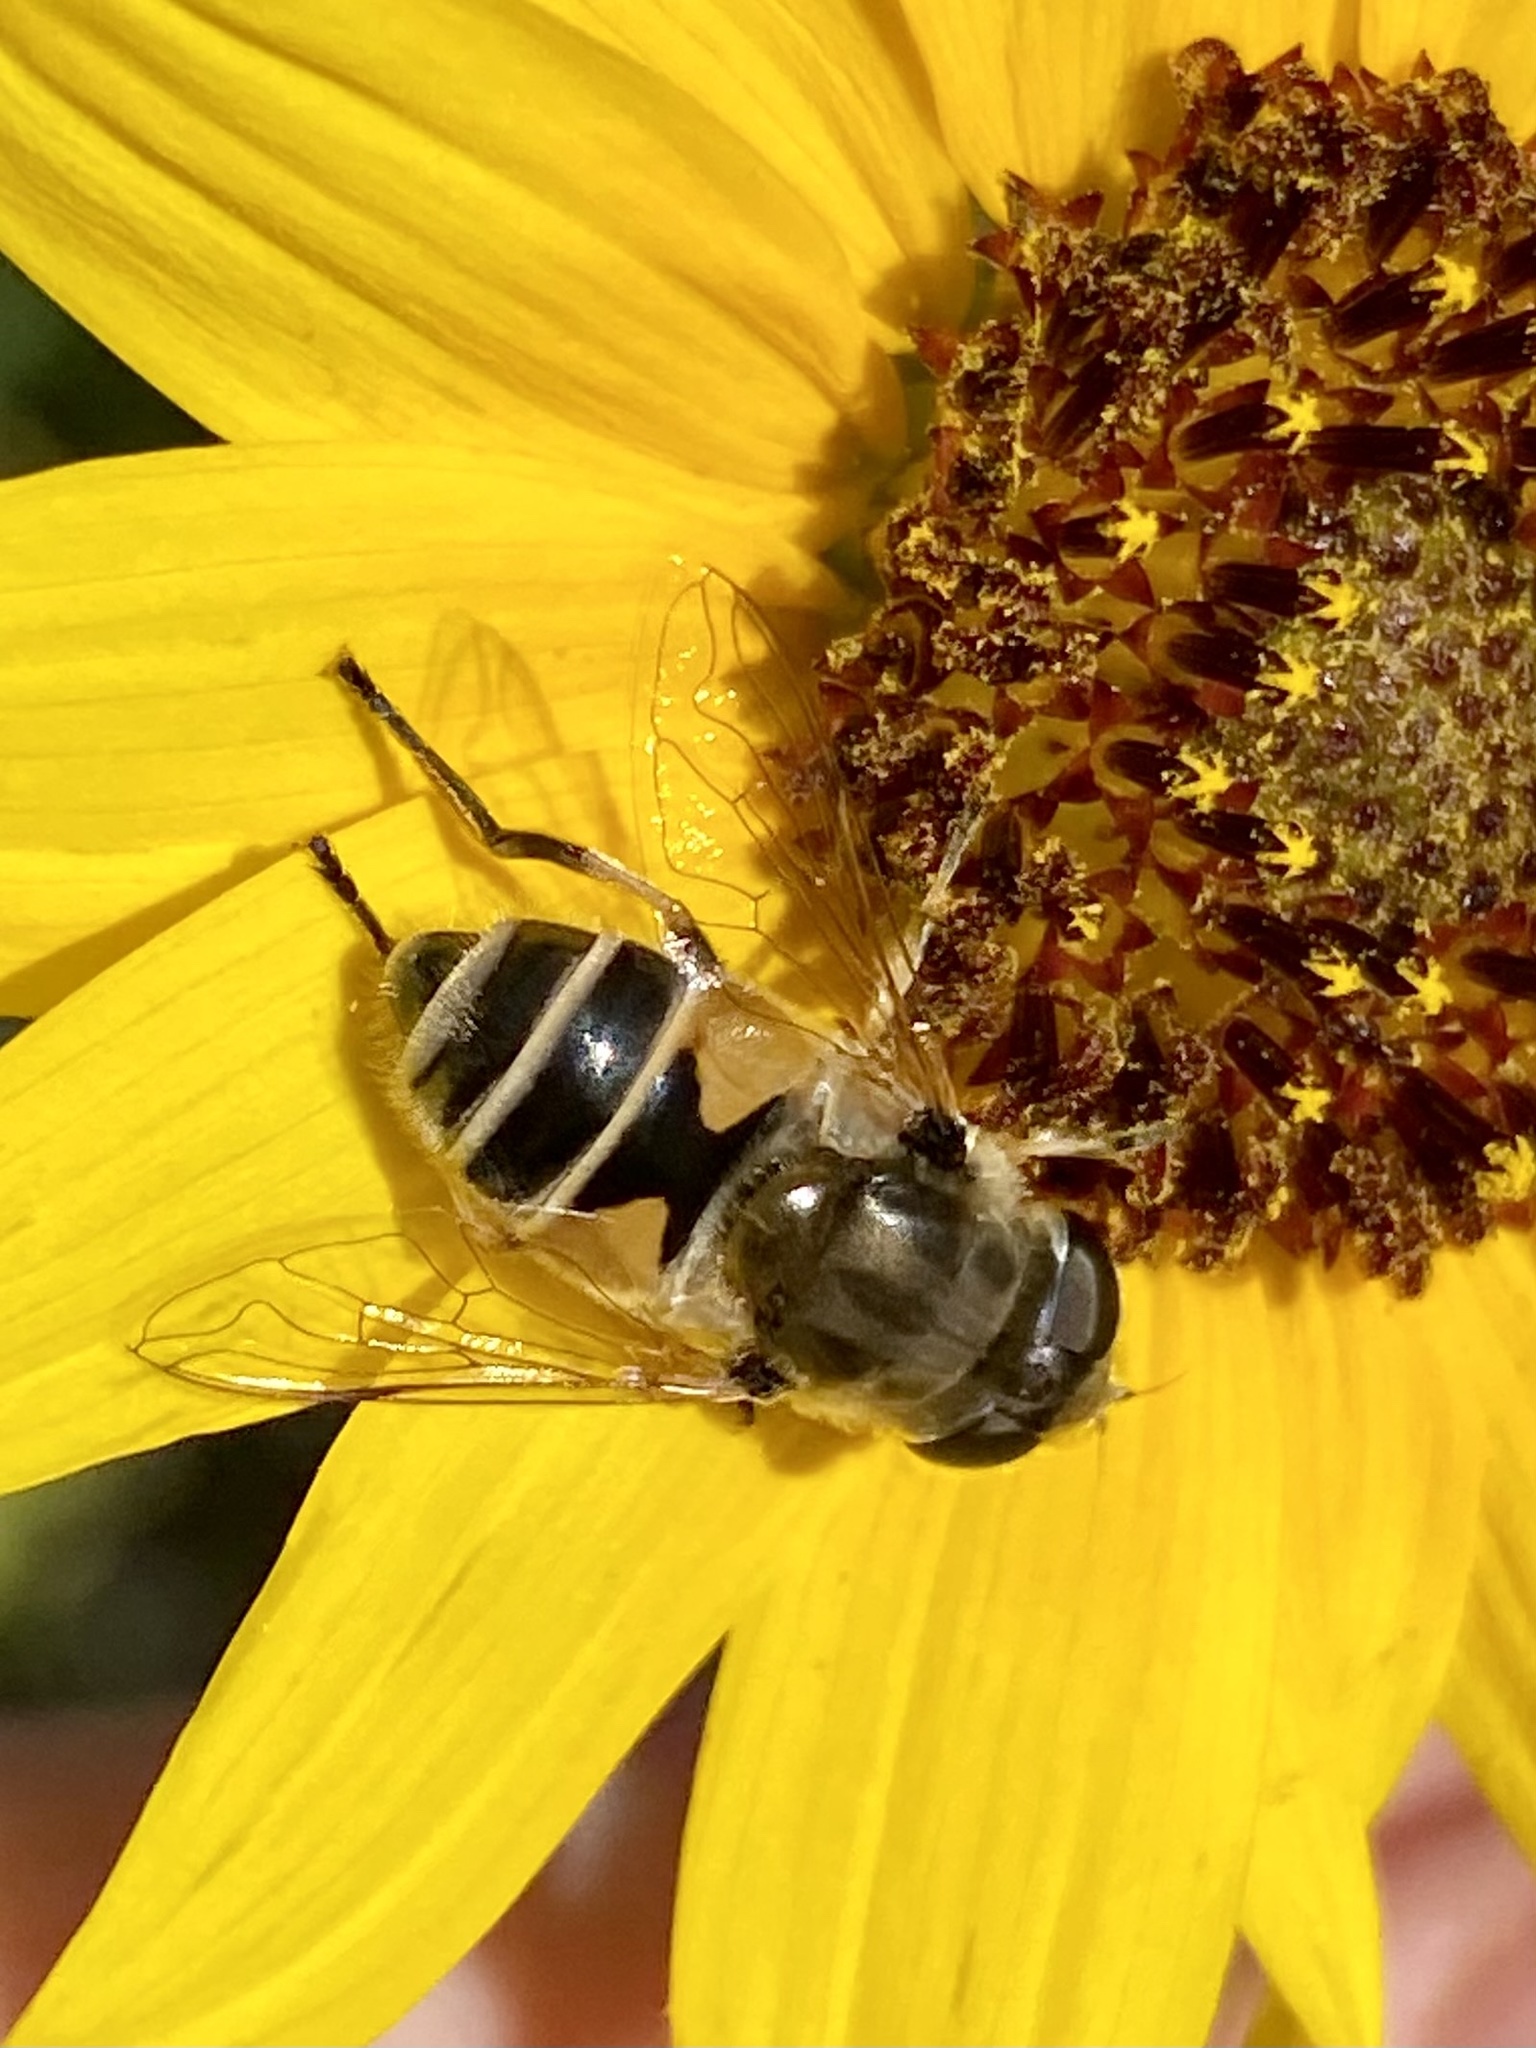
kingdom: Animalia
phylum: Arthropoda
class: Insecta
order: Diptera
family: Syrphidae
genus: Eristalis
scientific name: Eristalis arbustorum
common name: Hover fly
